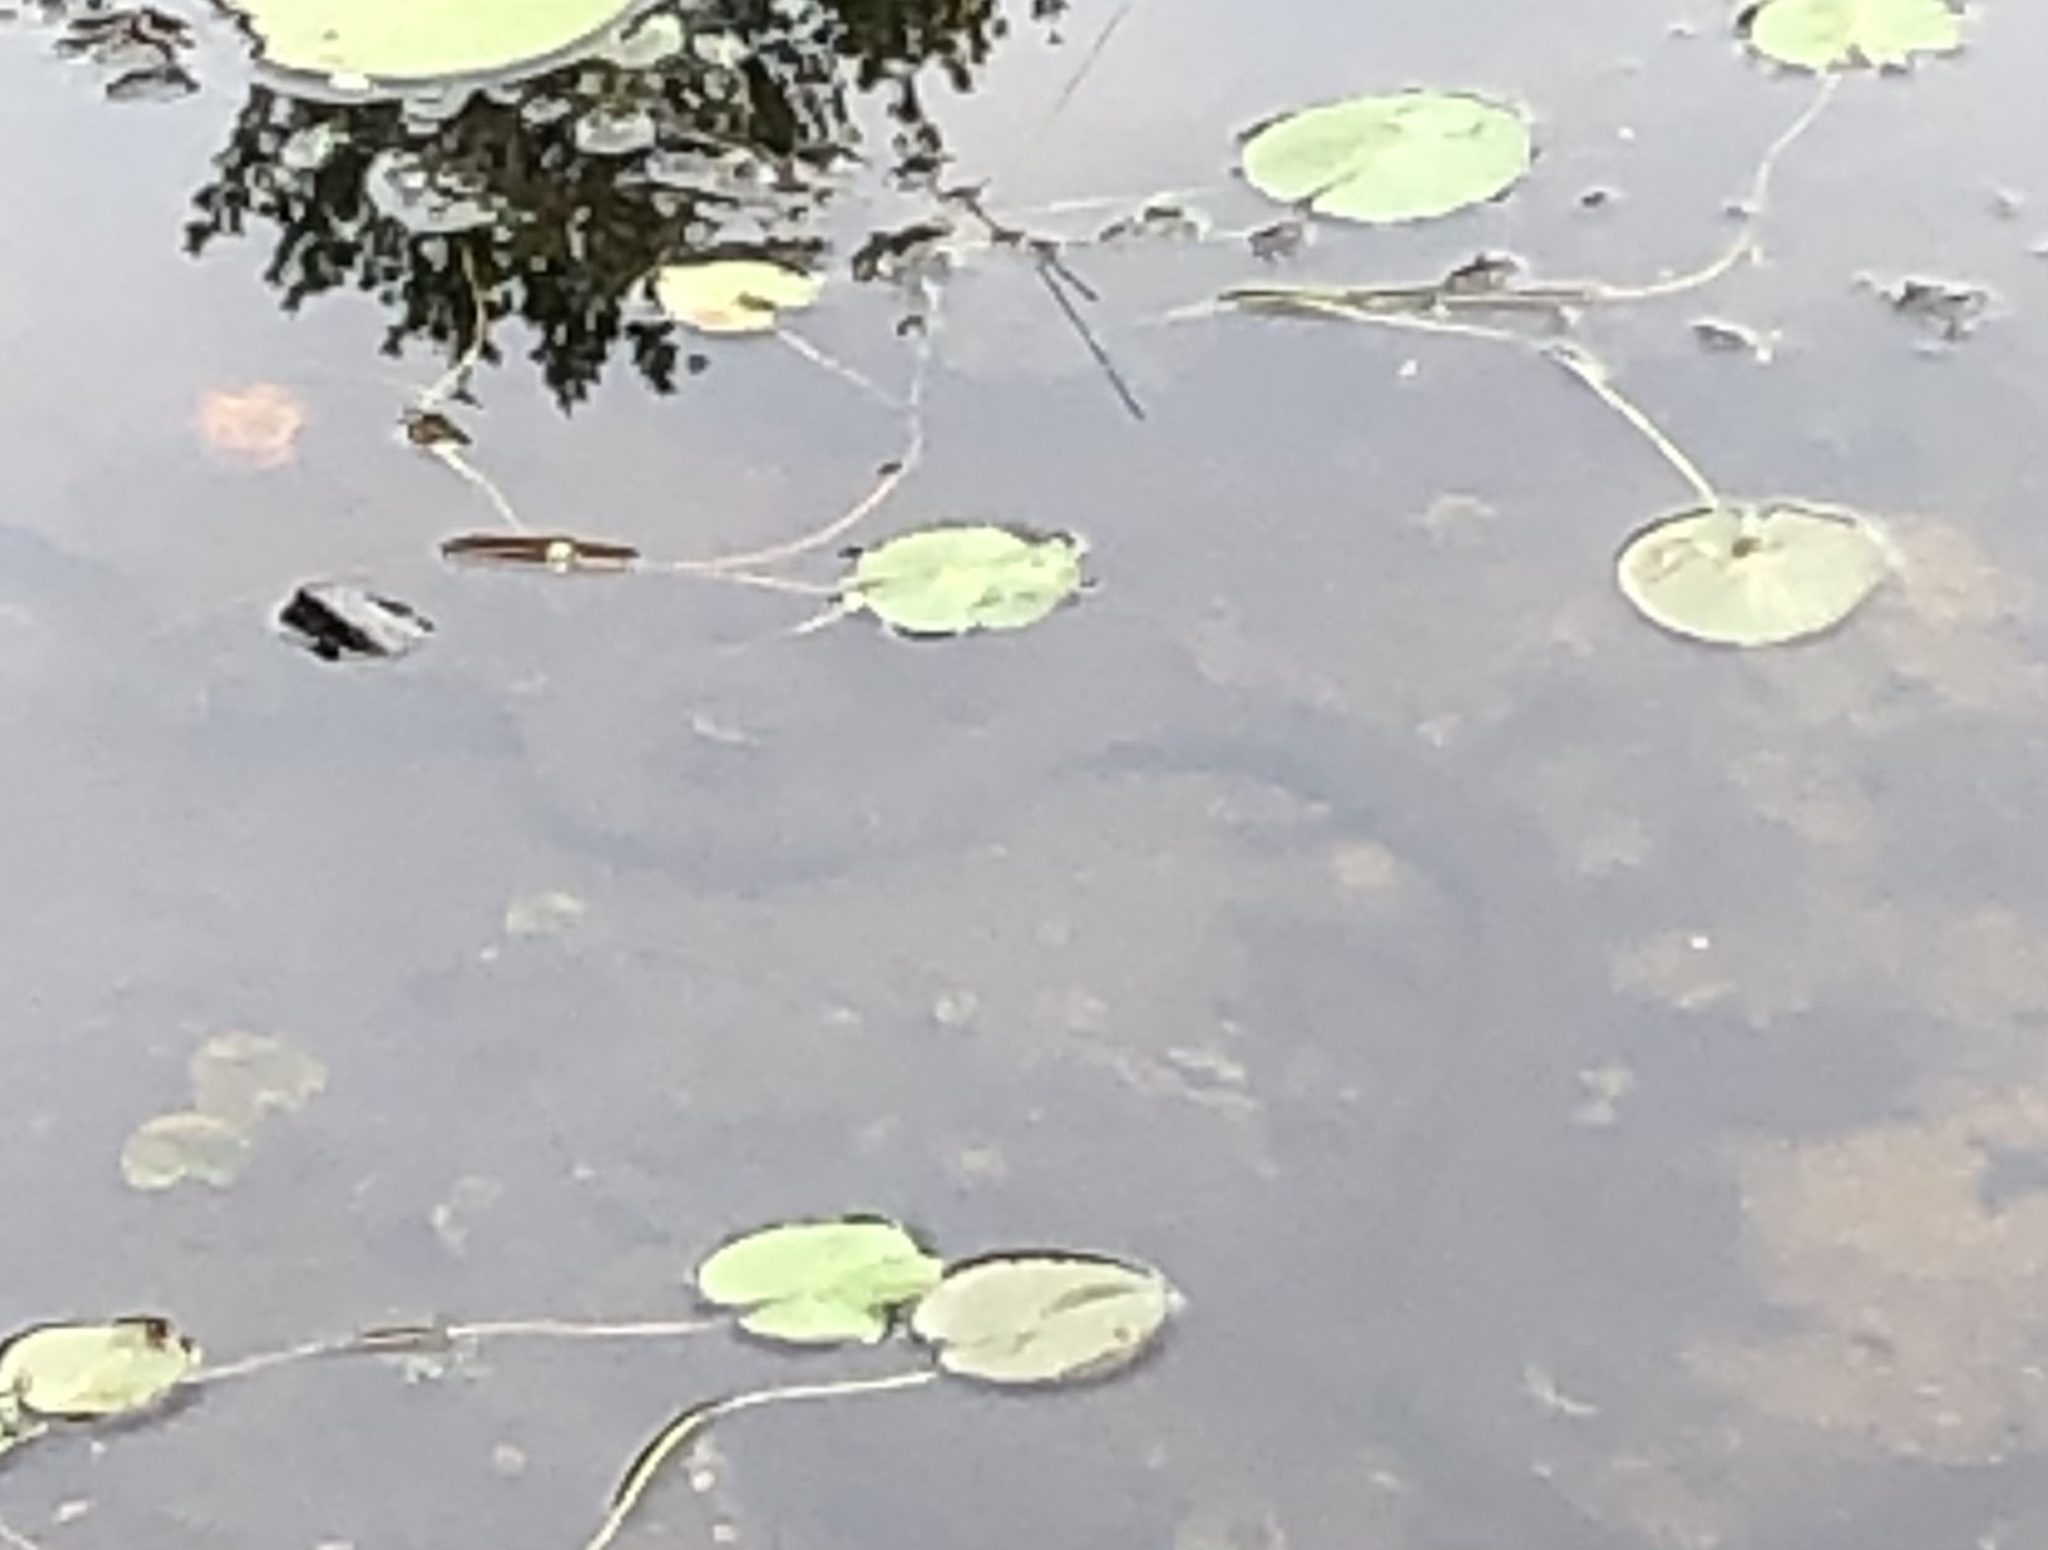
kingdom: Animalia
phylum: Chordata
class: Squamata
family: Colubridae
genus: Nerodia
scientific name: Nerodia sipedon
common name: Northern water snake
